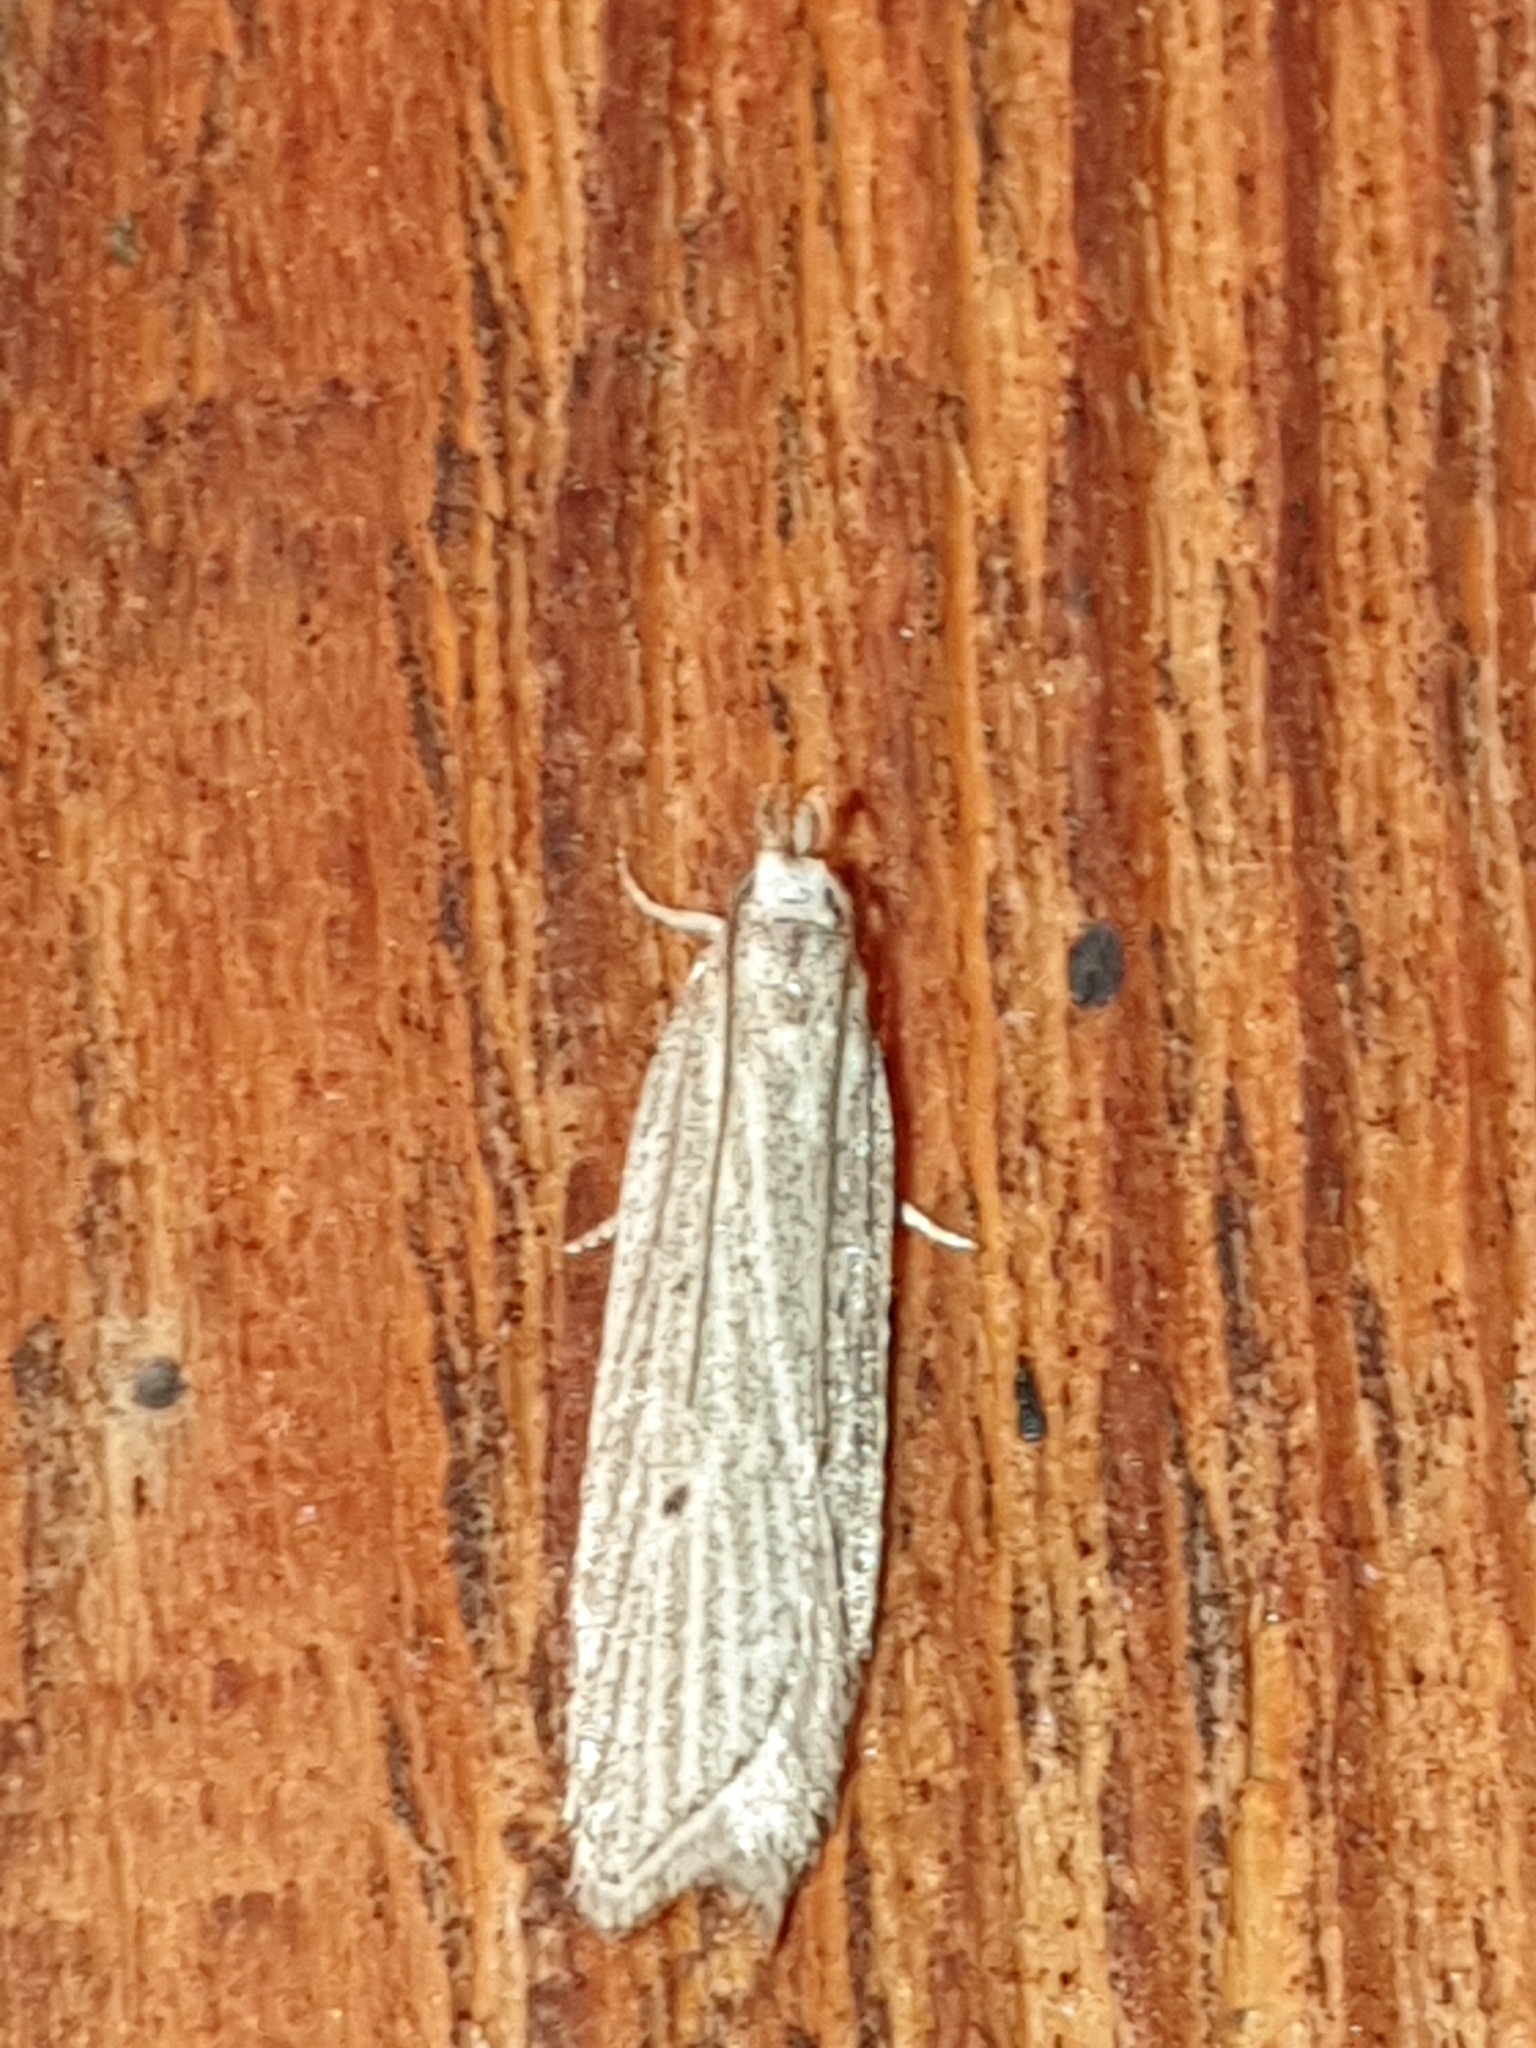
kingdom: Animalia
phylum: Arthropoda
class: Insecta
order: Lepidoptera
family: Gelechiidae
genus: Helcystogramma
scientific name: Helcystogramma lineolella
